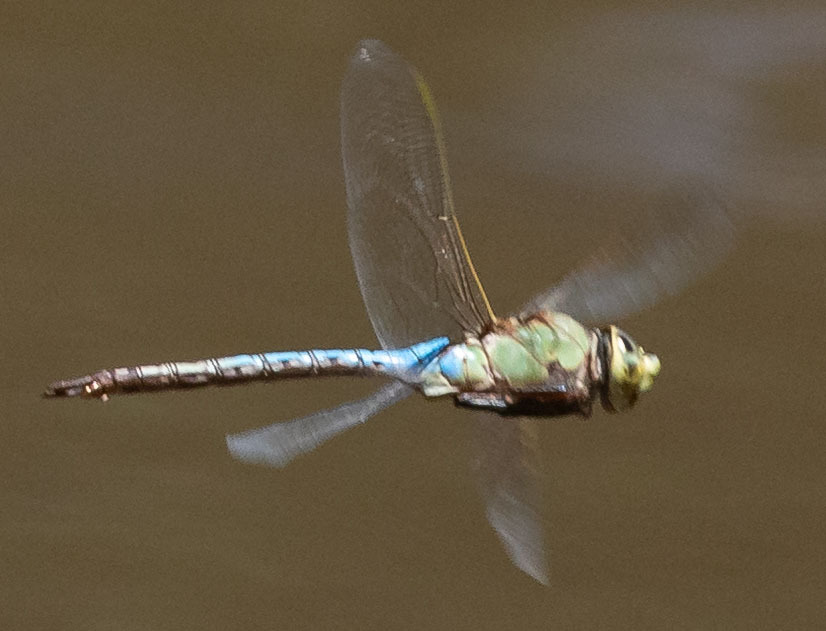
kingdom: Animalia
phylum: Arthropoda
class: Insecta
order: Odonata
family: Aeshnidae
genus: Anax
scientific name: Anax junius
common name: Common green darner
